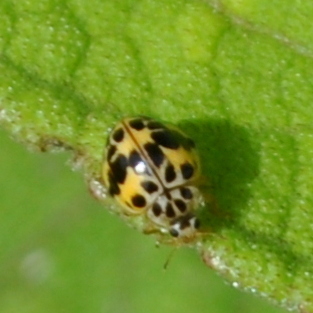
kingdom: Animalia
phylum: Arthropoda
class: Insecta
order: Coleoptera
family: Coccinellidae
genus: Psyllobora
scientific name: Psyllobora
